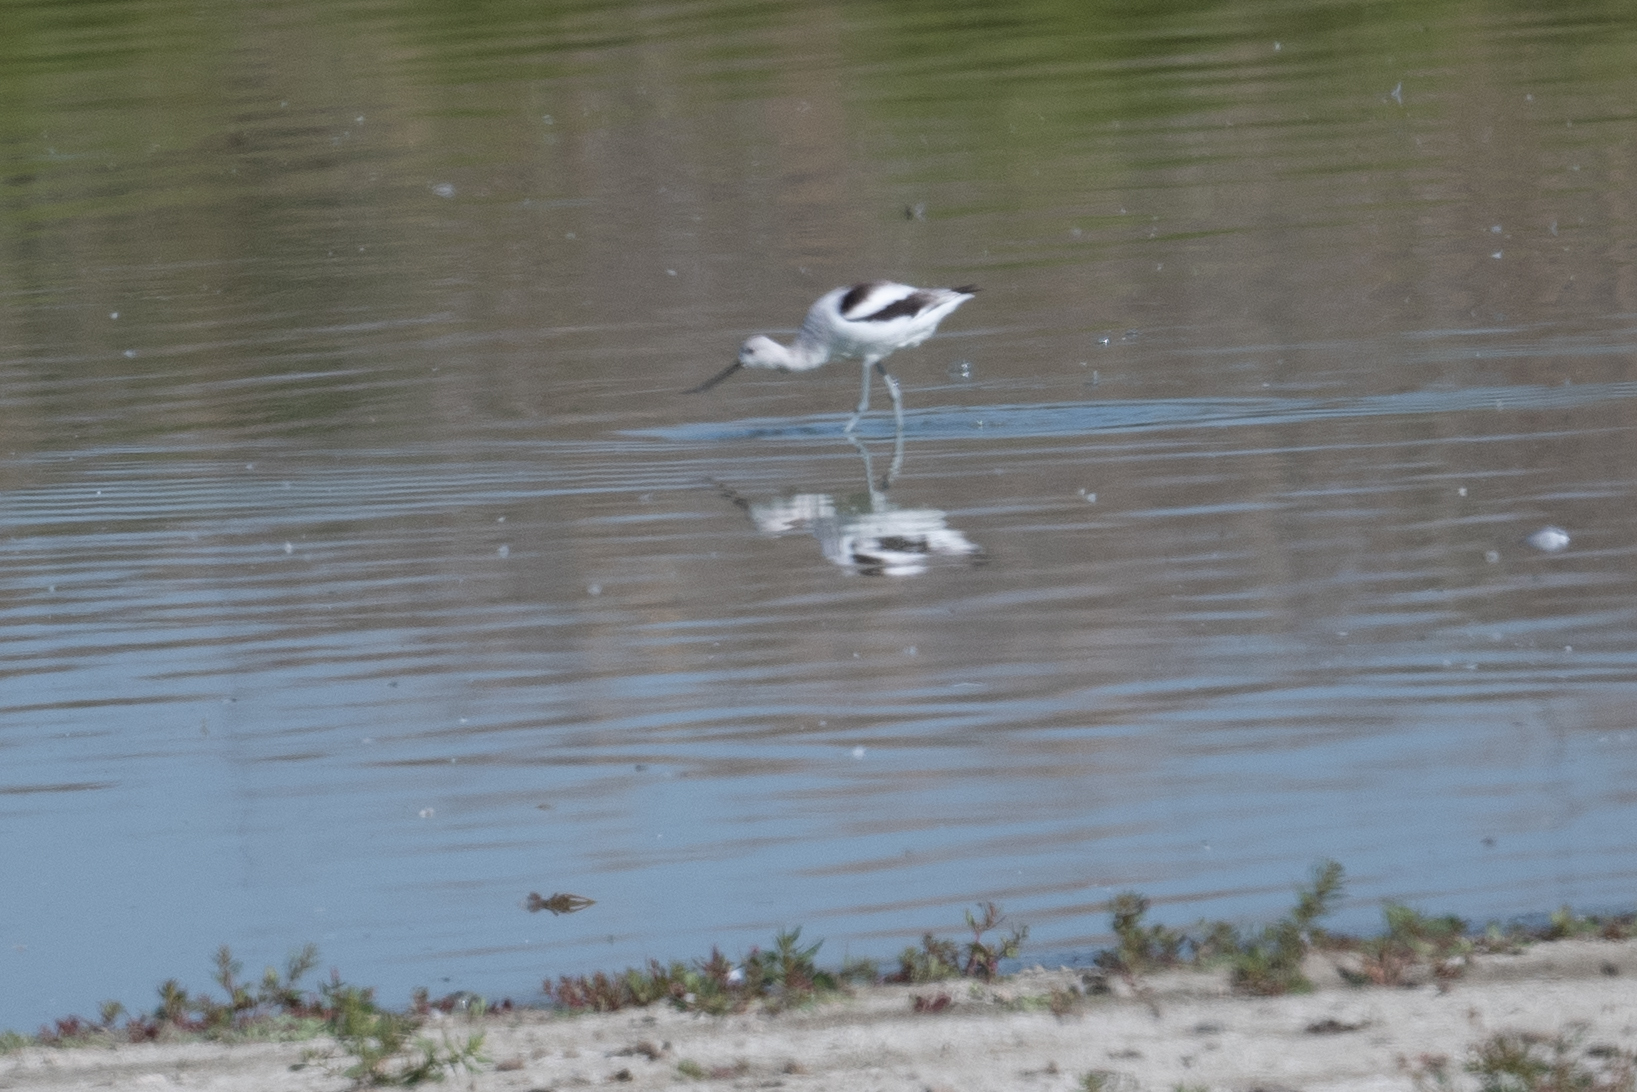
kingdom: Animalia
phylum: Chordata
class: Aves
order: Charadriiformes
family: Recurvirostridae
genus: Recurvirostra
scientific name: Recurvirostra americana
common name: American avocet
